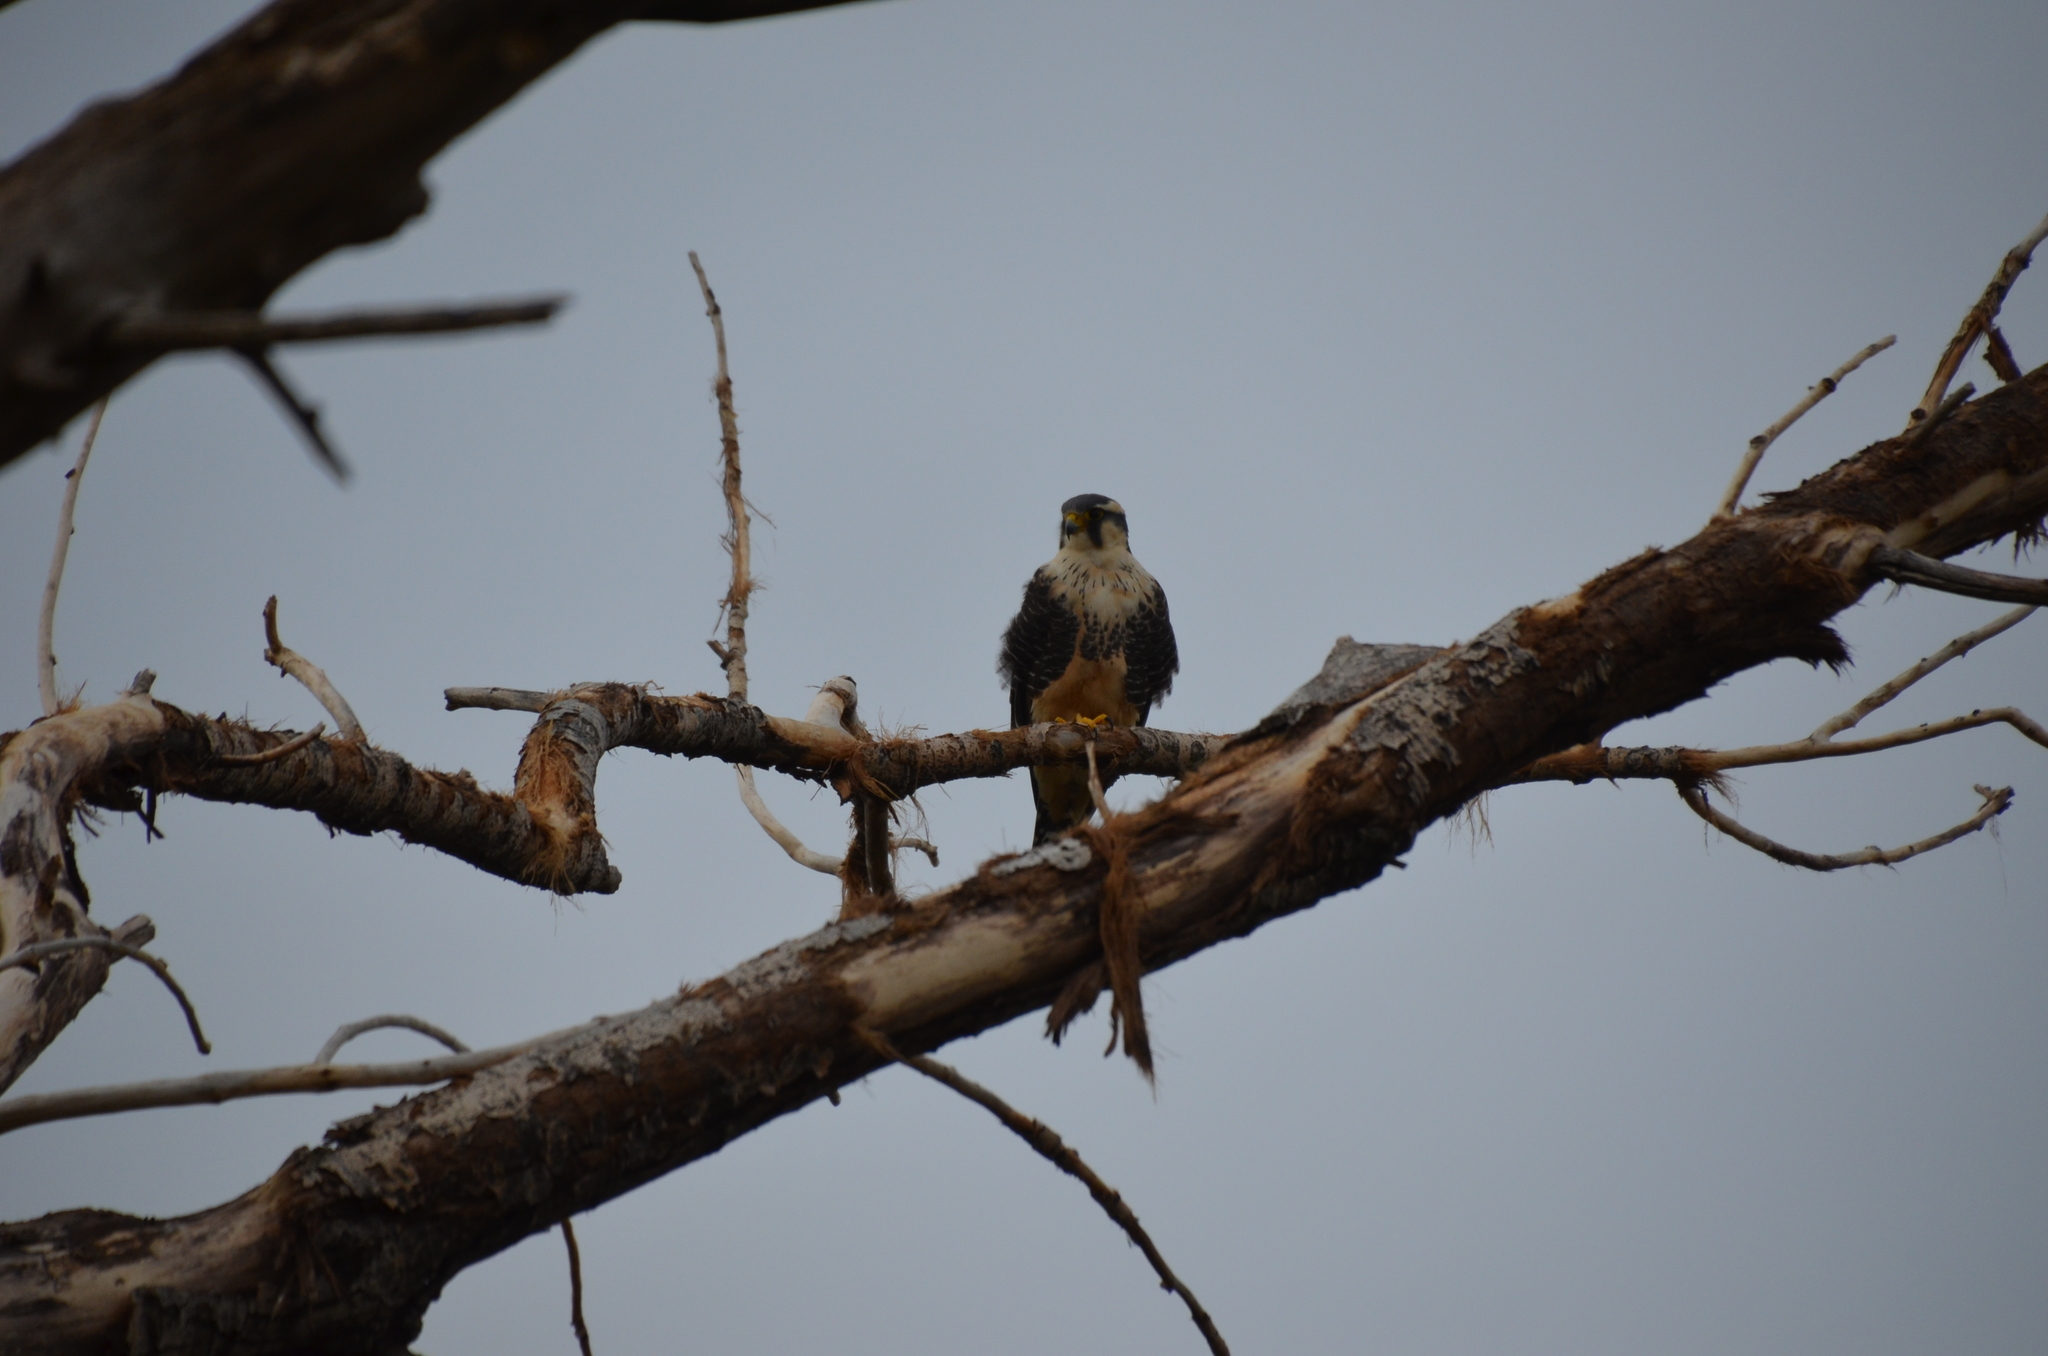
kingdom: Animalia
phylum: Chordata
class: Aves
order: Falconiformes
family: Falconidae
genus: Falco
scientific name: Falco femoralis
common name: Aplomado falcon
